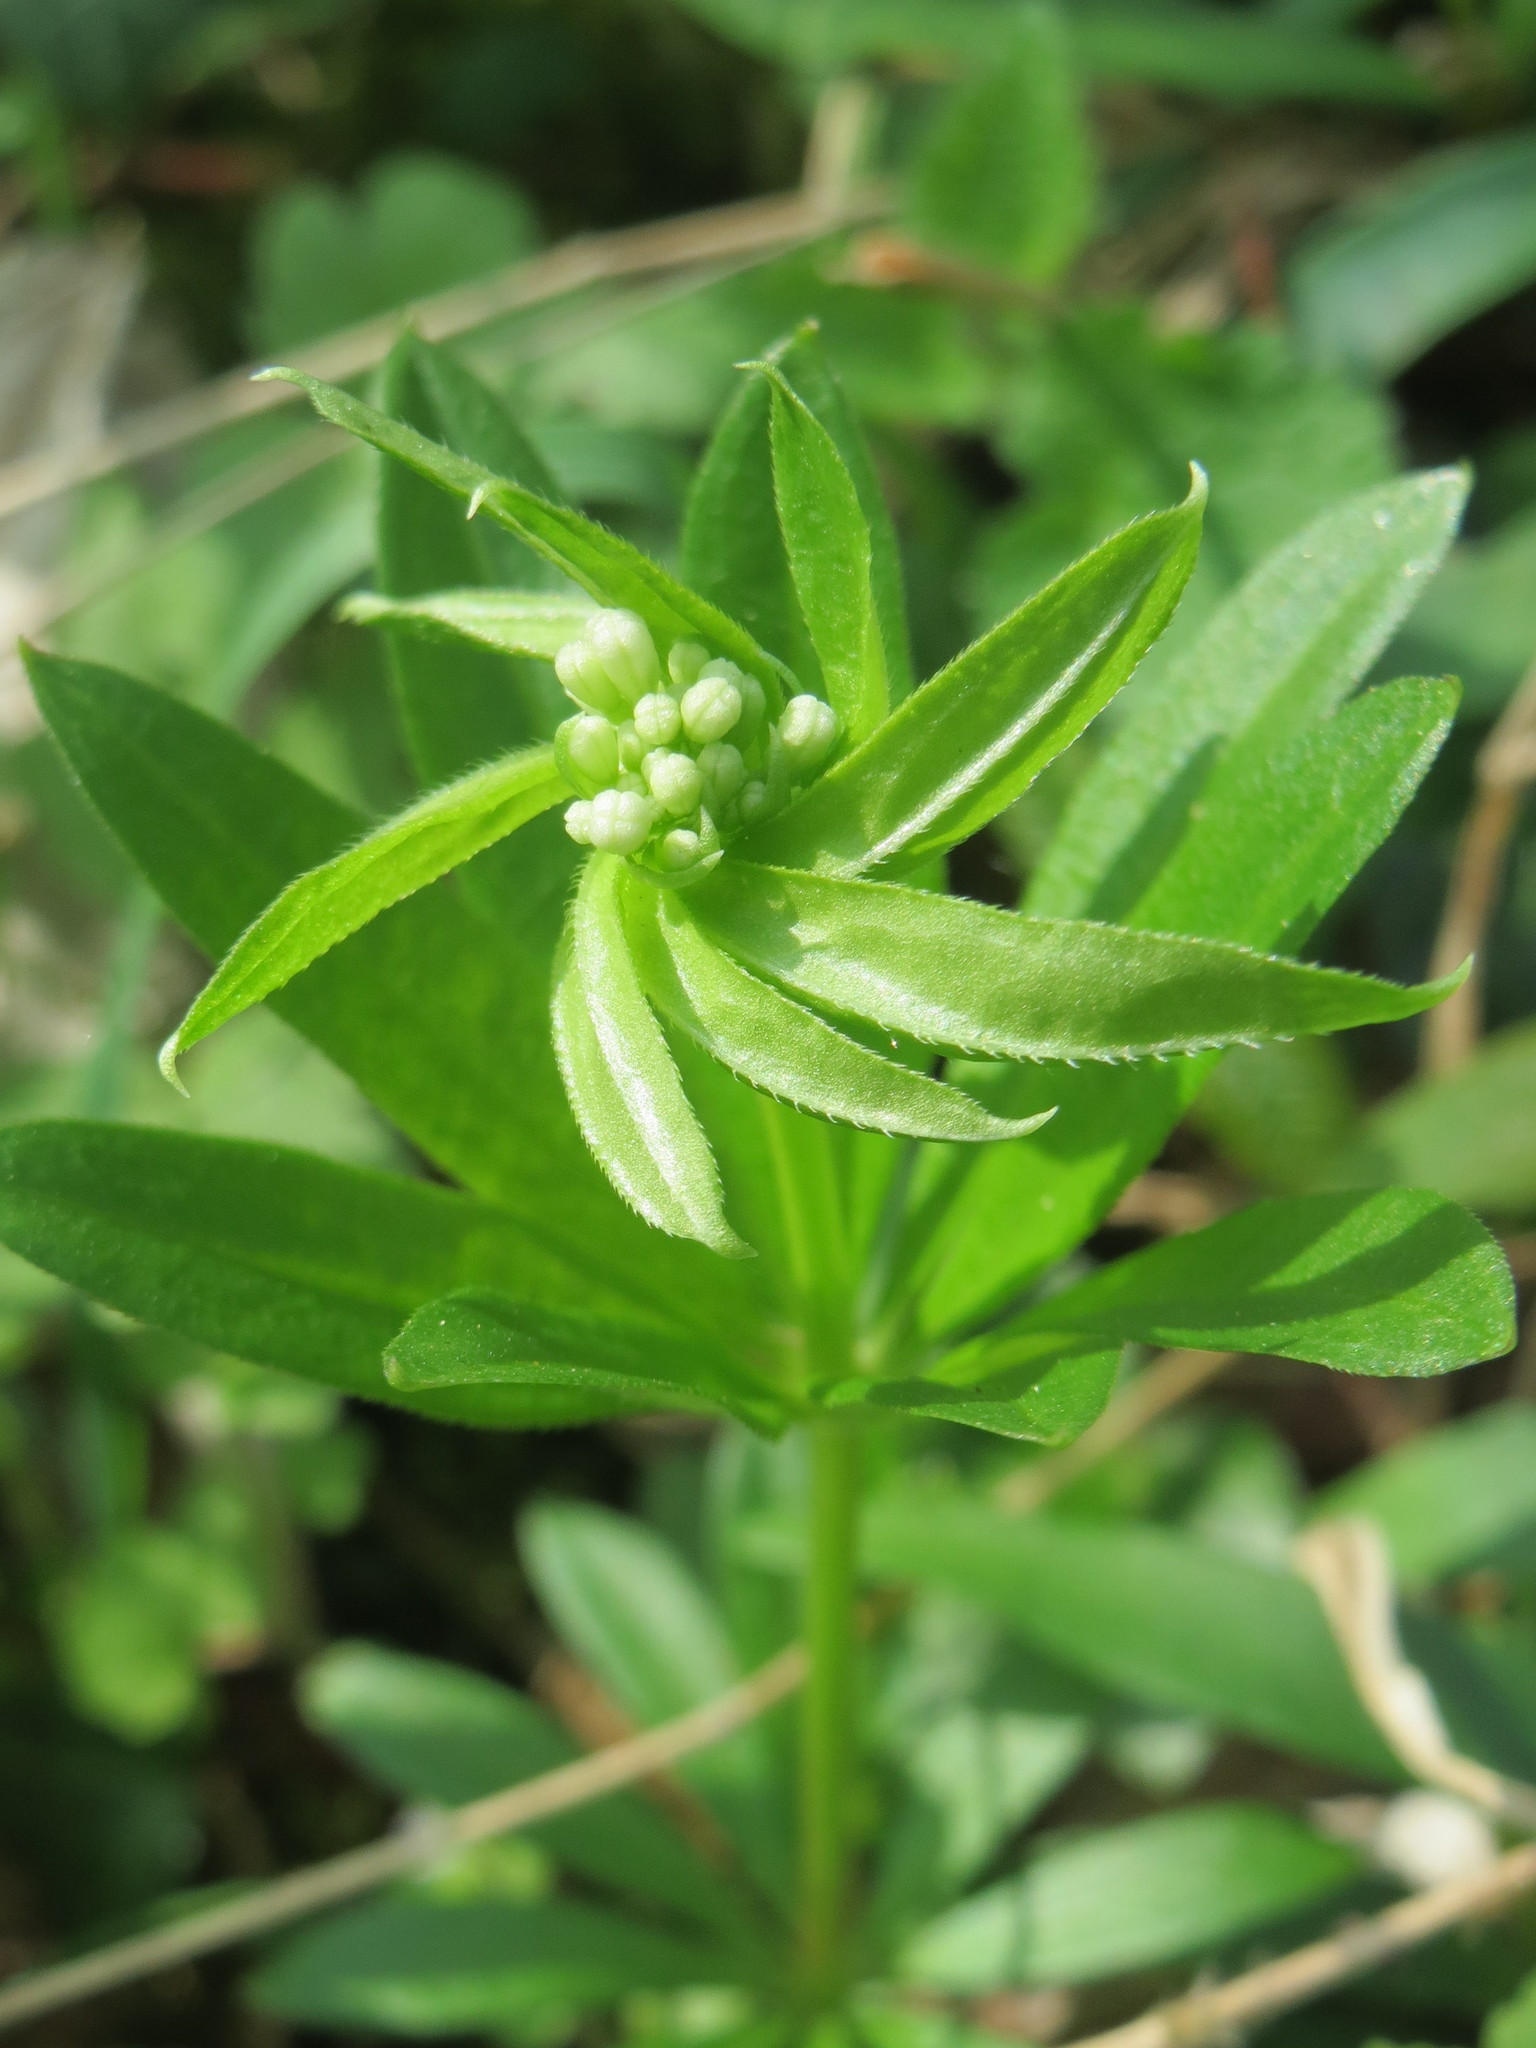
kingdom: Plantae
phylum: Tracheophyta
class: Magnoliopsida
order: Gentianales
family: Rubiaceae
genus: Galium
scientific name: Galium odoratum
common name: Sweet woodruff
